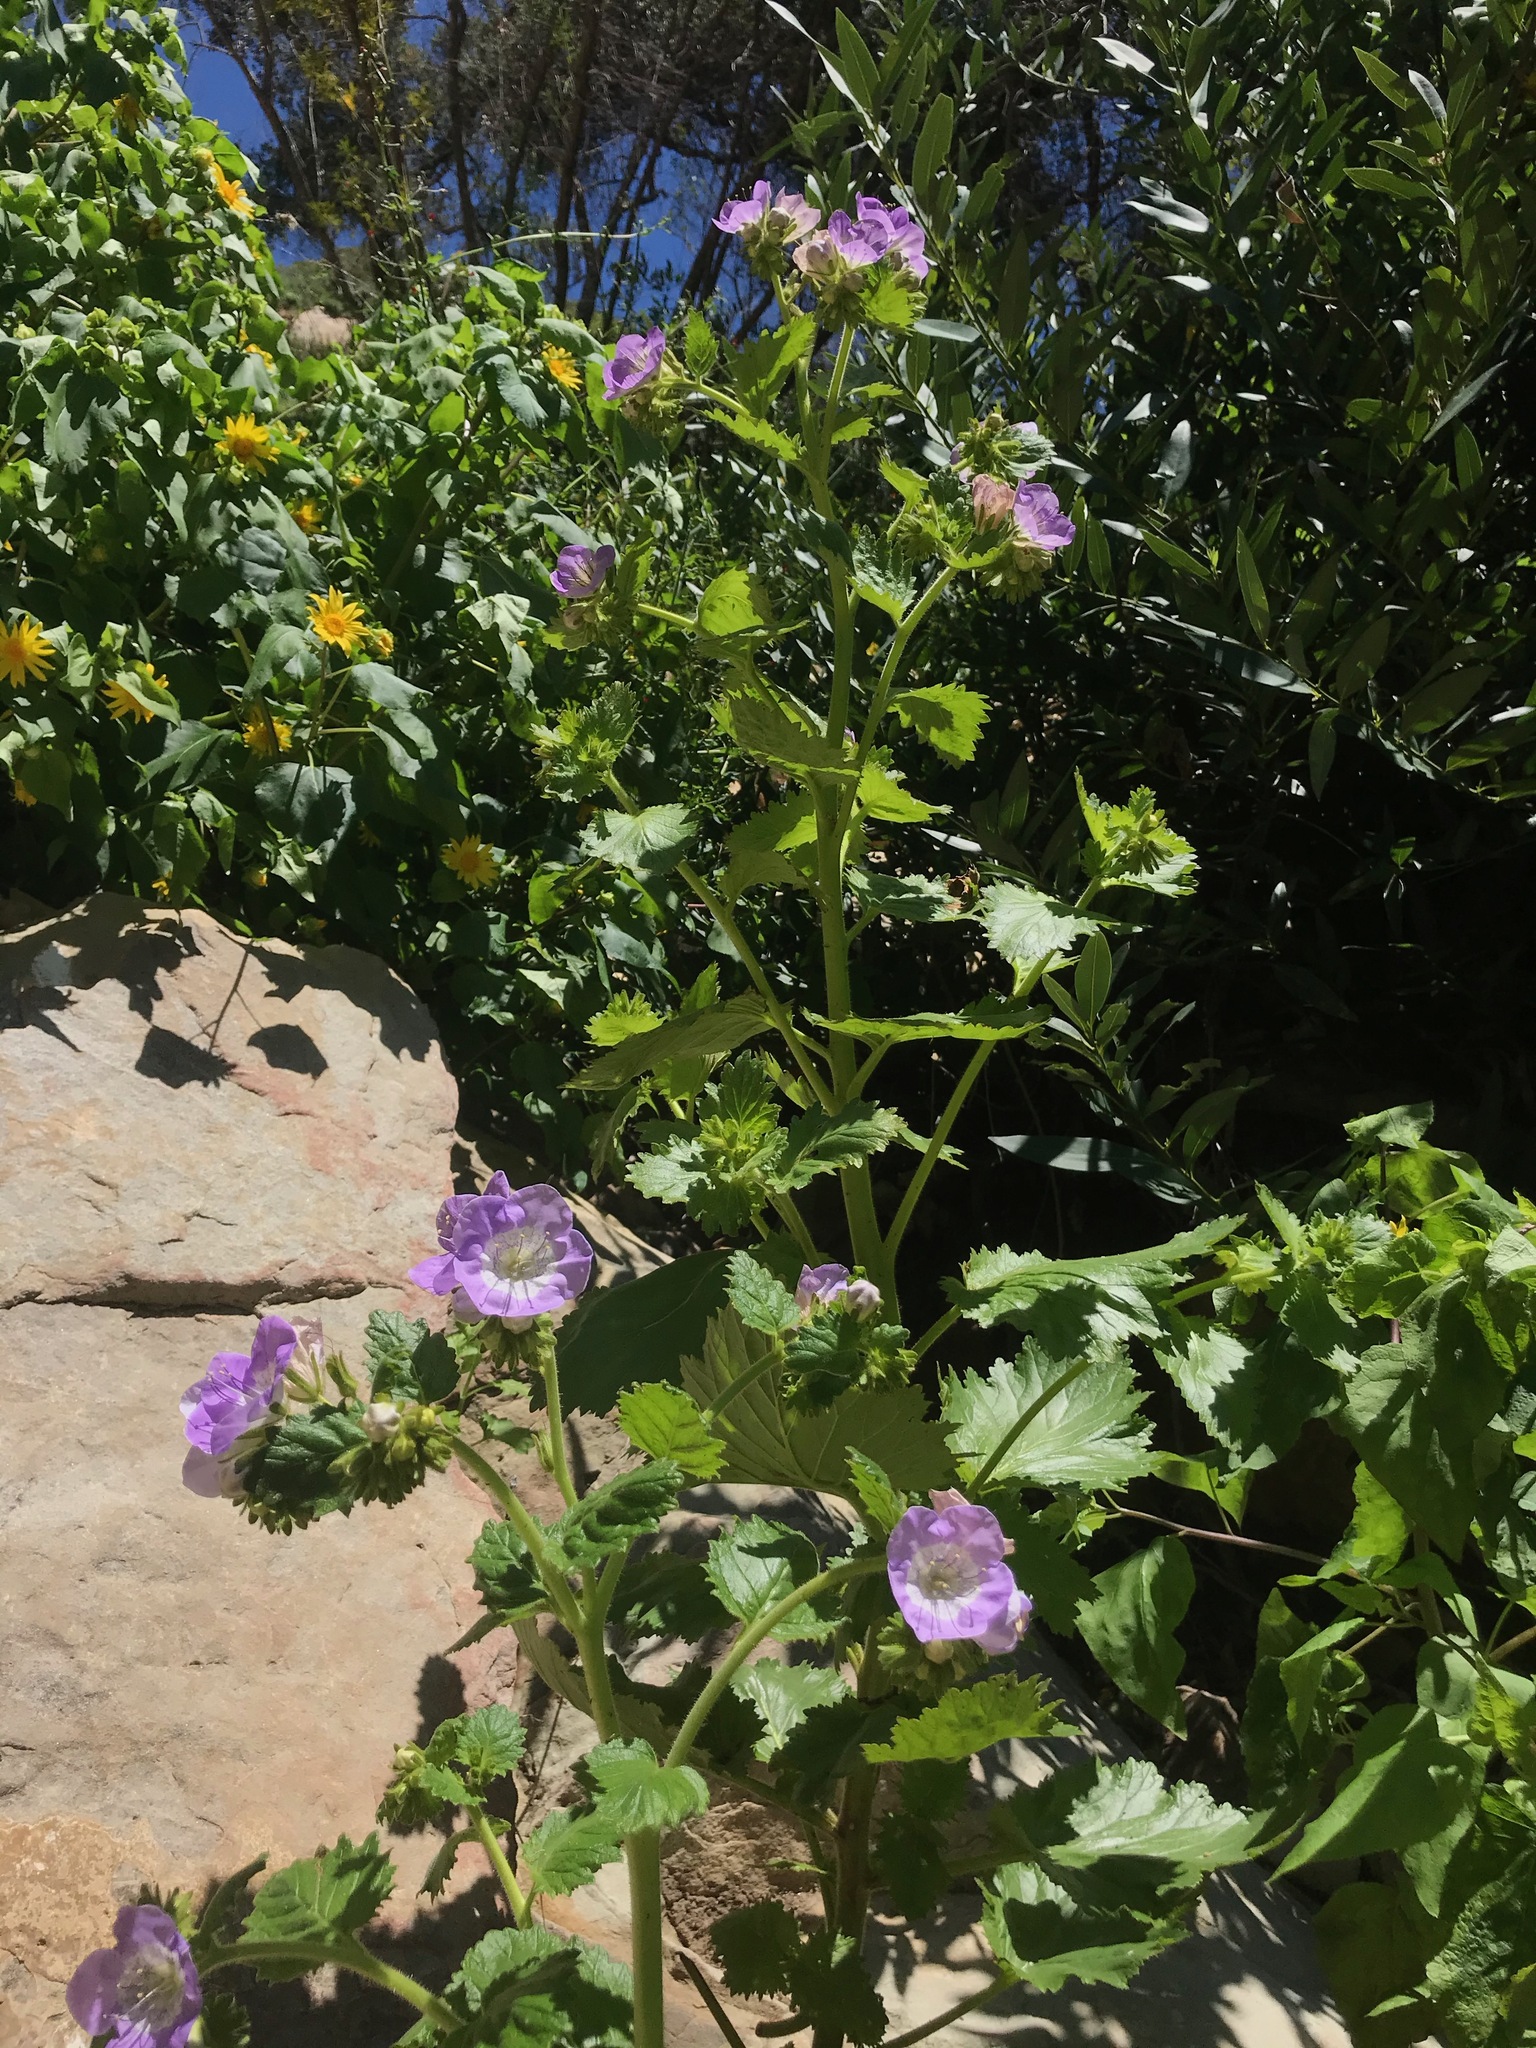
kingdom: Plantae
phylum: Tracheophyta
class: Magnoliopsida
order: Boraginales
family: Hydrophyllaceae
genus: Phacelia
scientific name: Phacelia grandiflora
